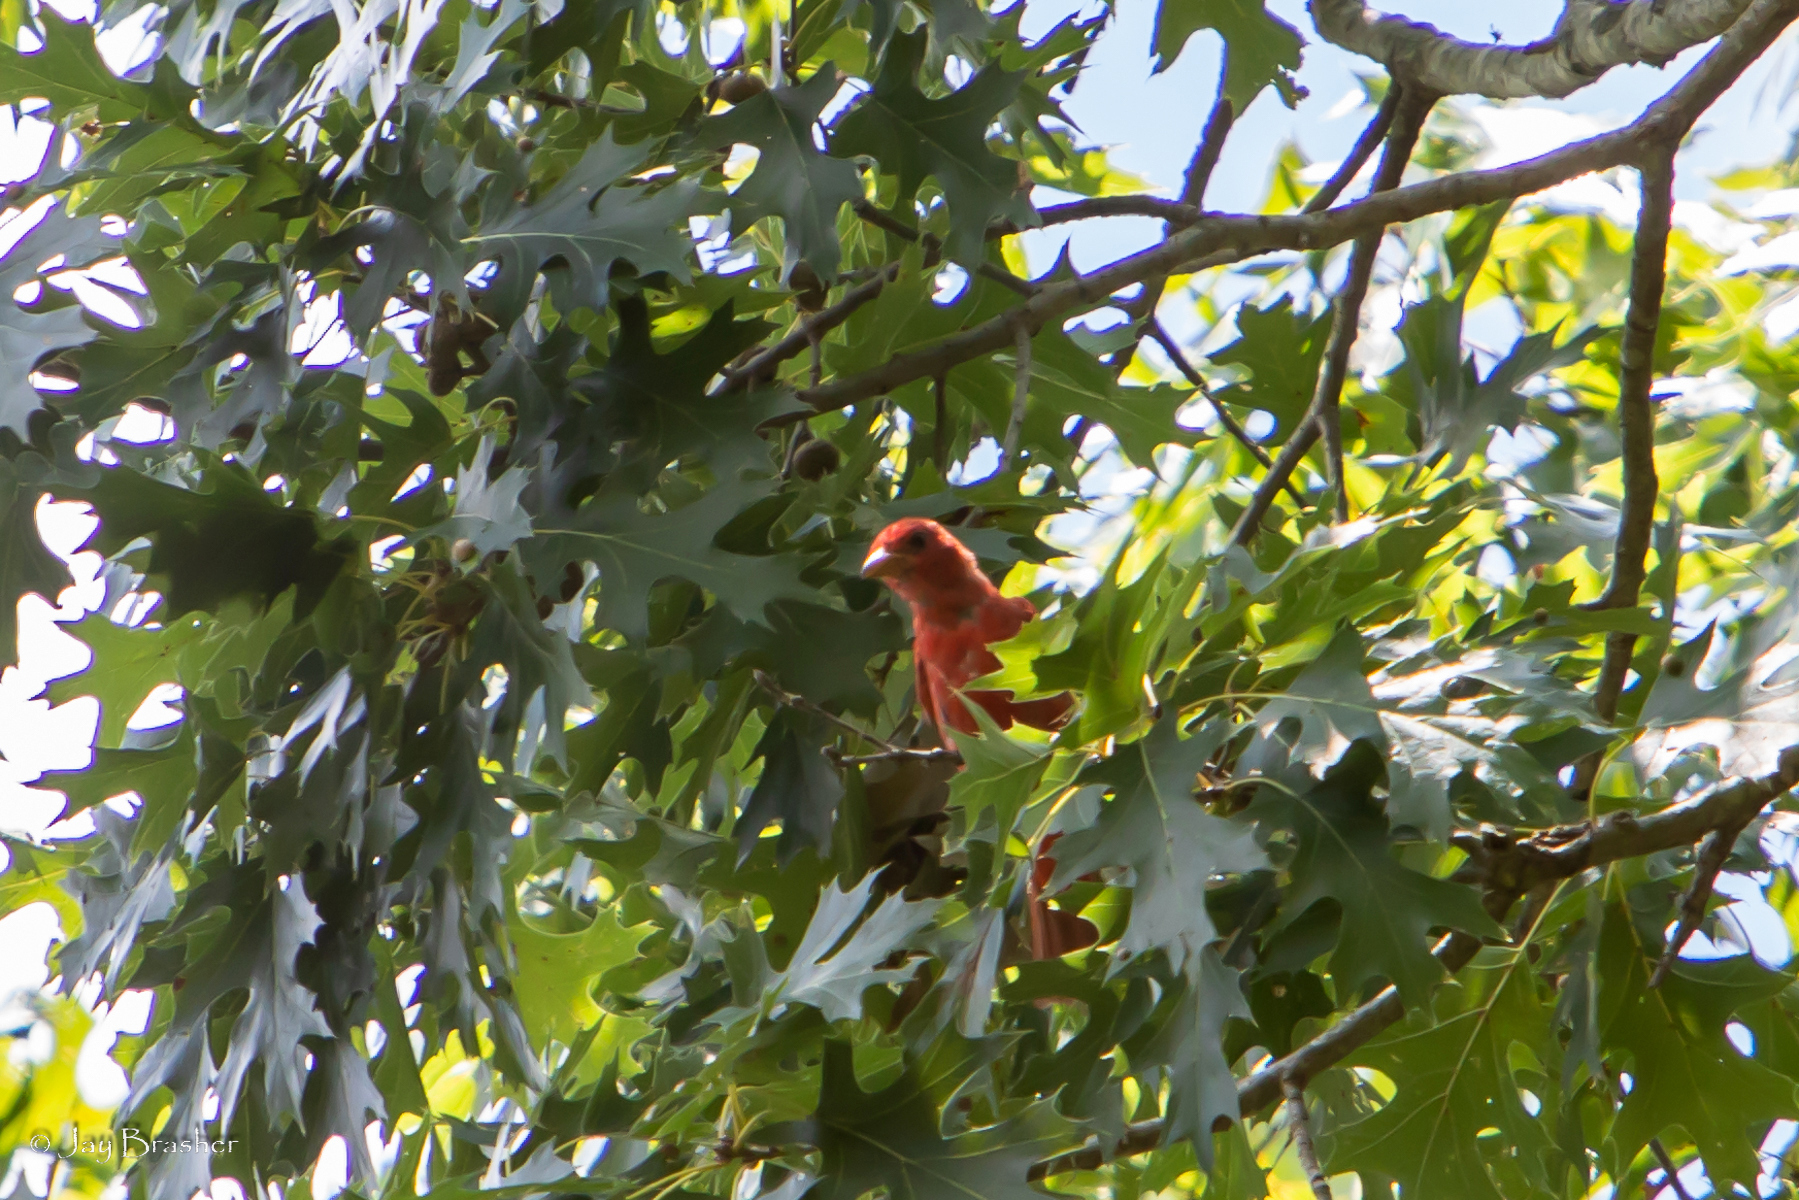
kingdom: Animalia
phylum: Chordata
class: Aves
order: Passeriformes
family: Cardinalidae
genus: Piranga
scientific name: Piranga rubra
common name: Summer tanager
